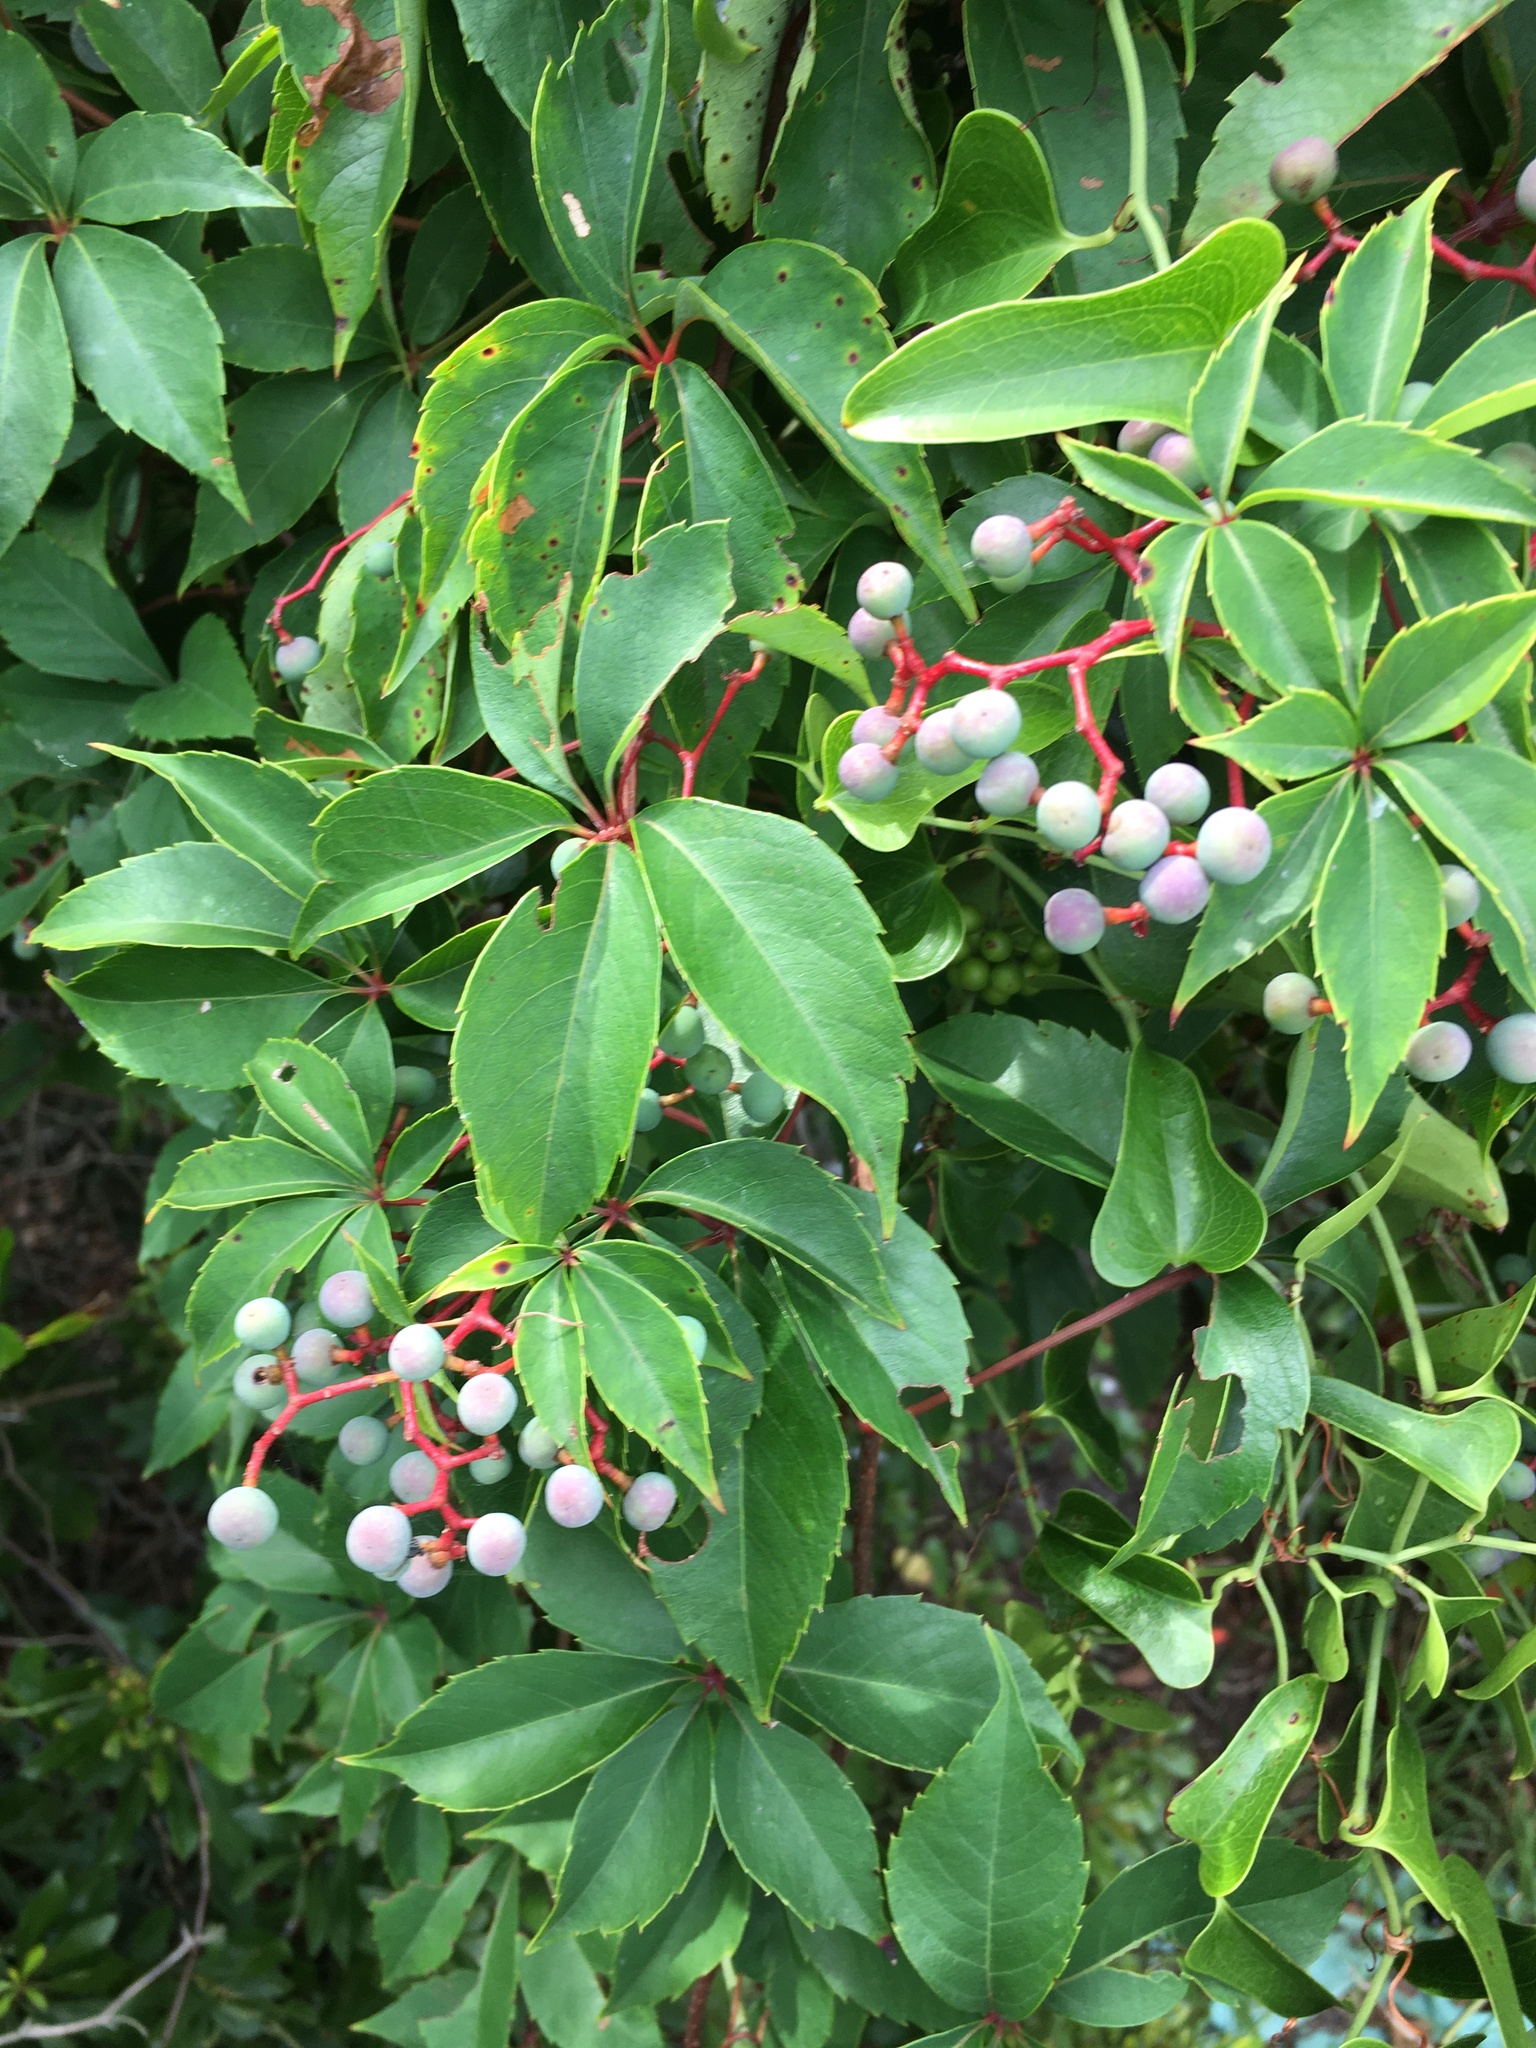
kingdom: Plantae
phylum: Tracheophyta
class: Magnoliopsida
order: Vitales
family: Vitaceae
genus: Parthenocissus
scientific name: Parthenocissus quinquefolia
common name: Virginia-creeper
